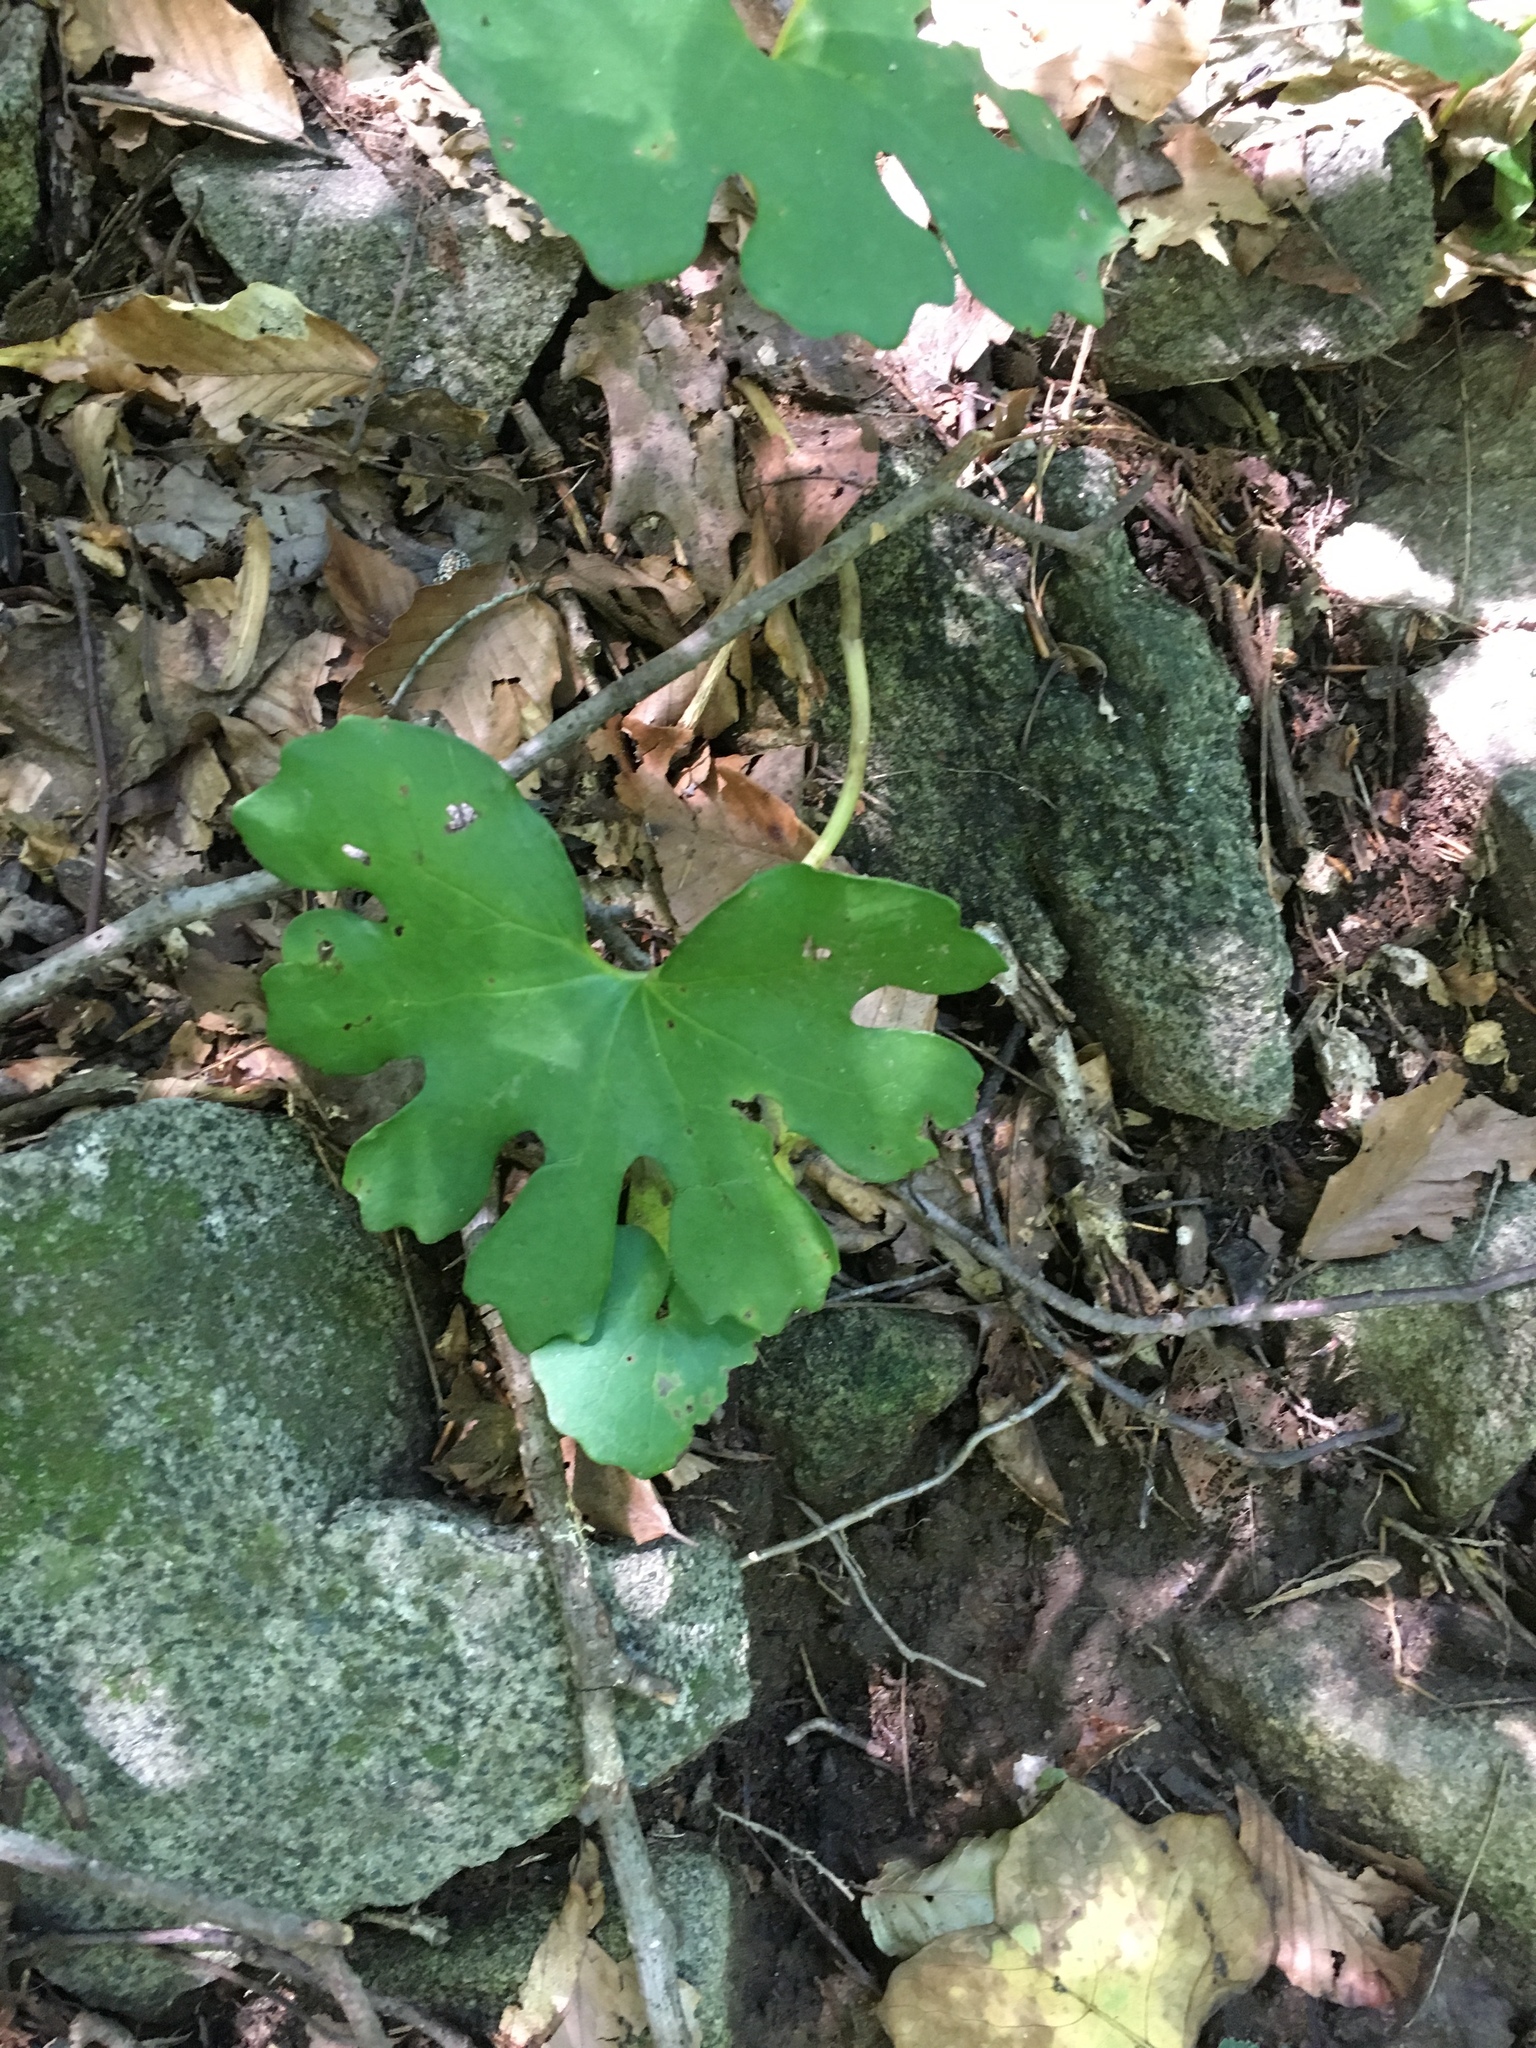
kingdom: Plantae
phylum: Tracheophyta
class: Magnoliopsida
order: Ranunculales
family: Papaveraceae
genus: Sanguinaria
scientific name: Sanguinaria canadensis
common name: Bloodroot
